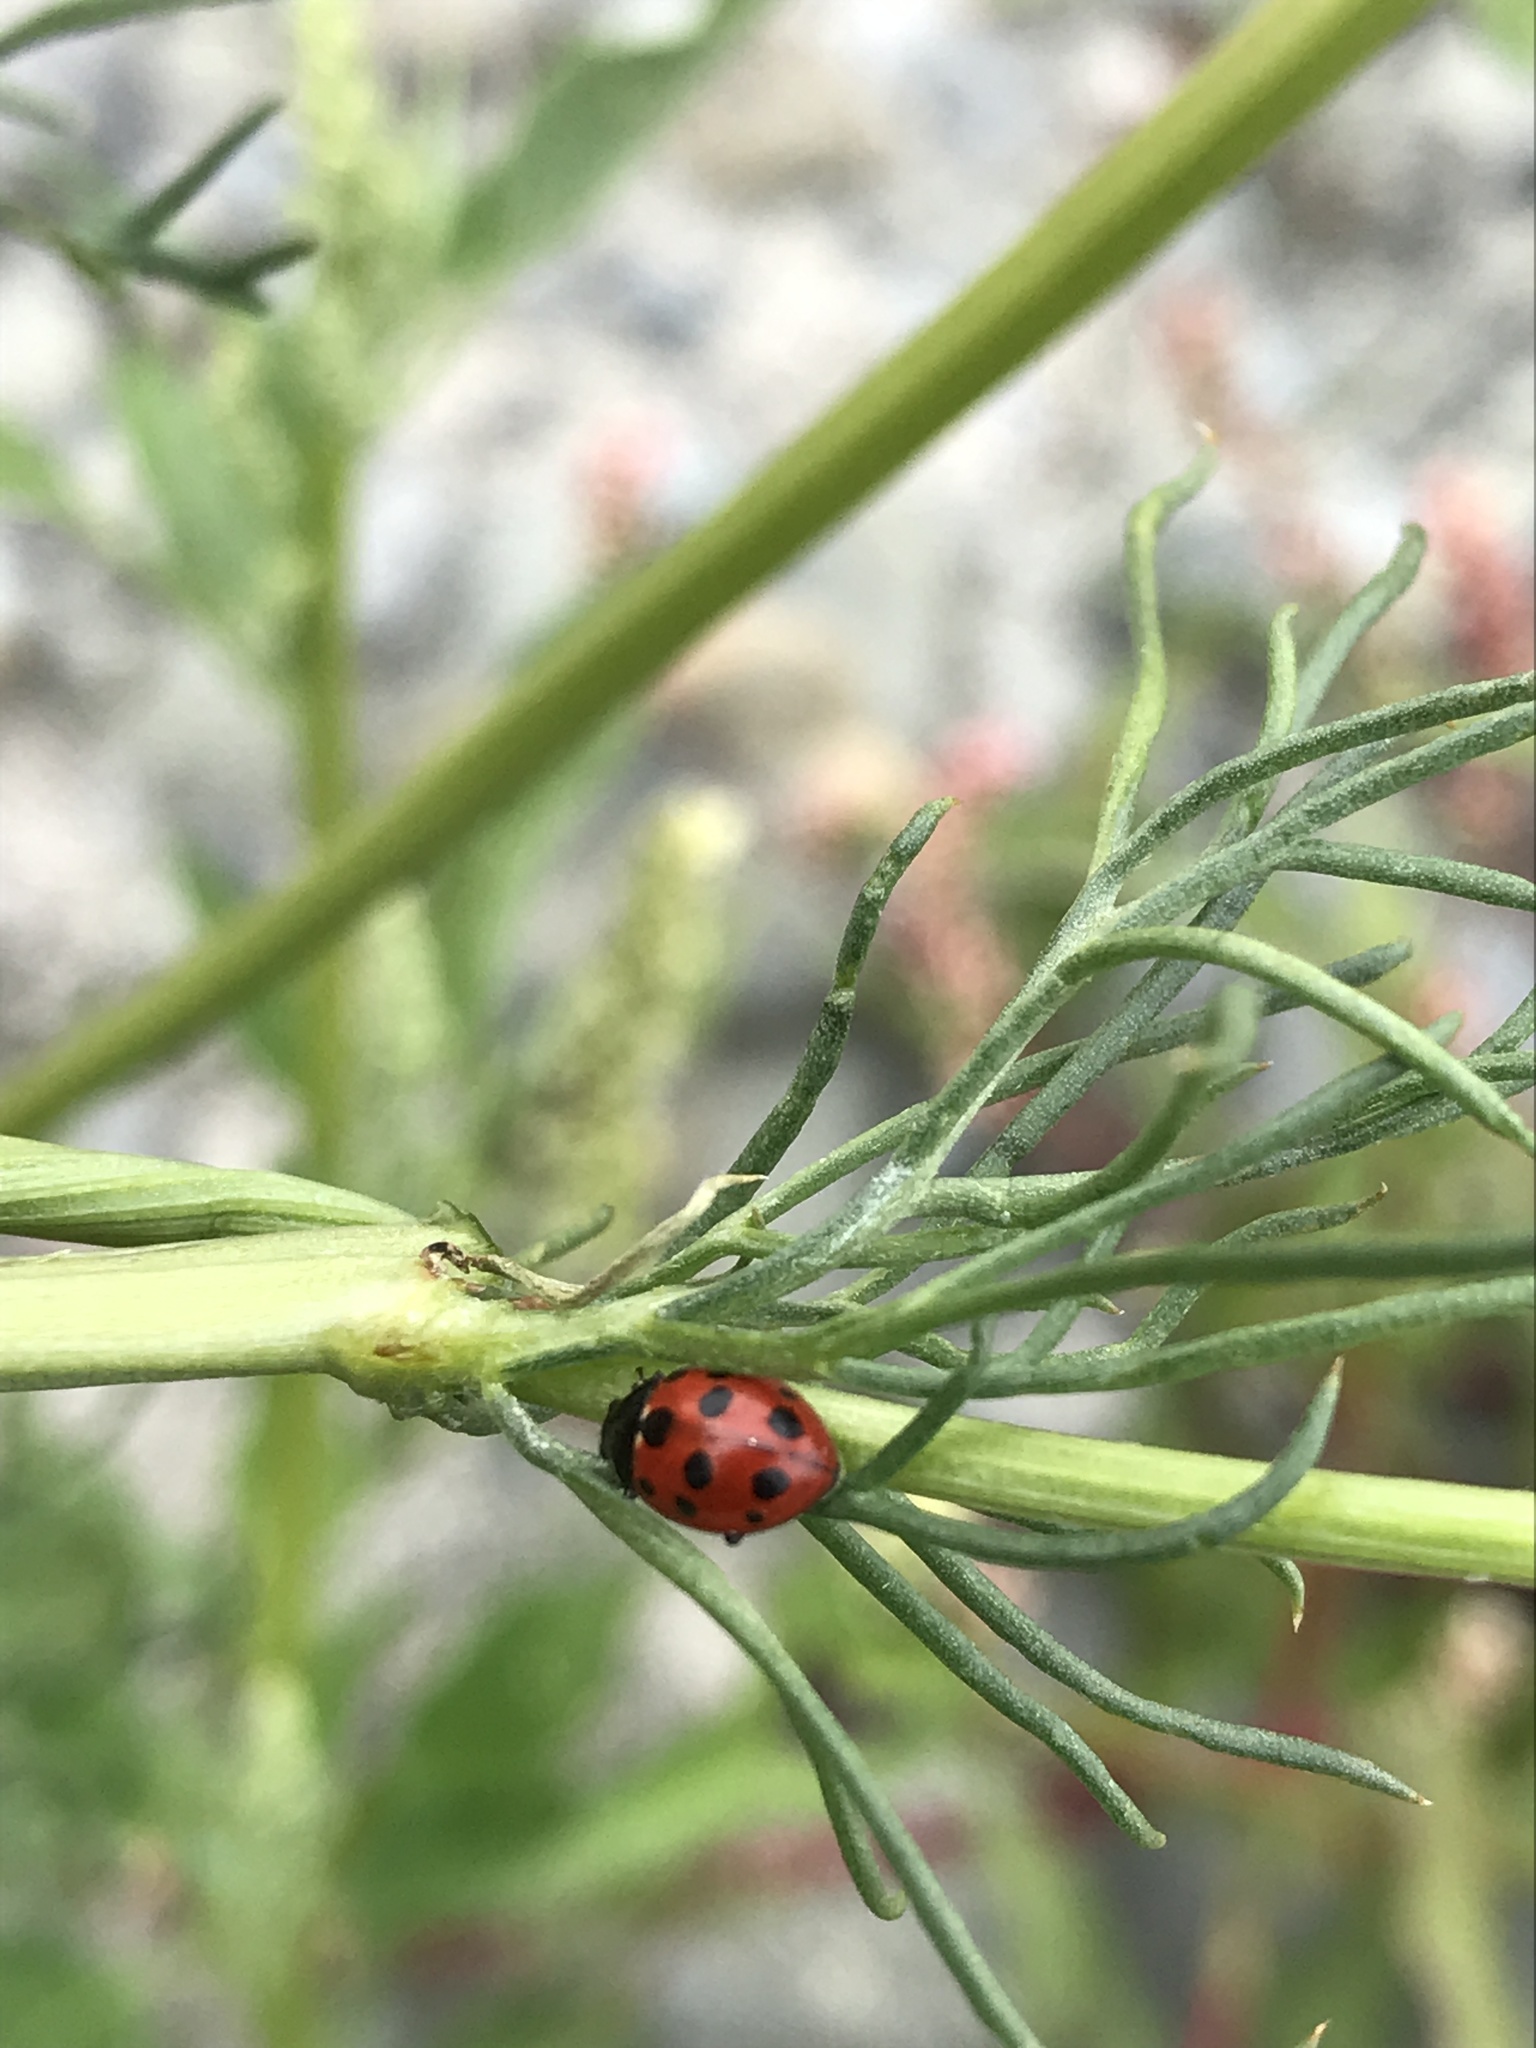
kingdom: Animalia
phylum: Arthropoda
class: Insecta
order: Coleoptera
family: Coccinellidae
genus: Coccinella
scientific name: Coccinella undecimpunctata
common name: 11-spot ladybird
